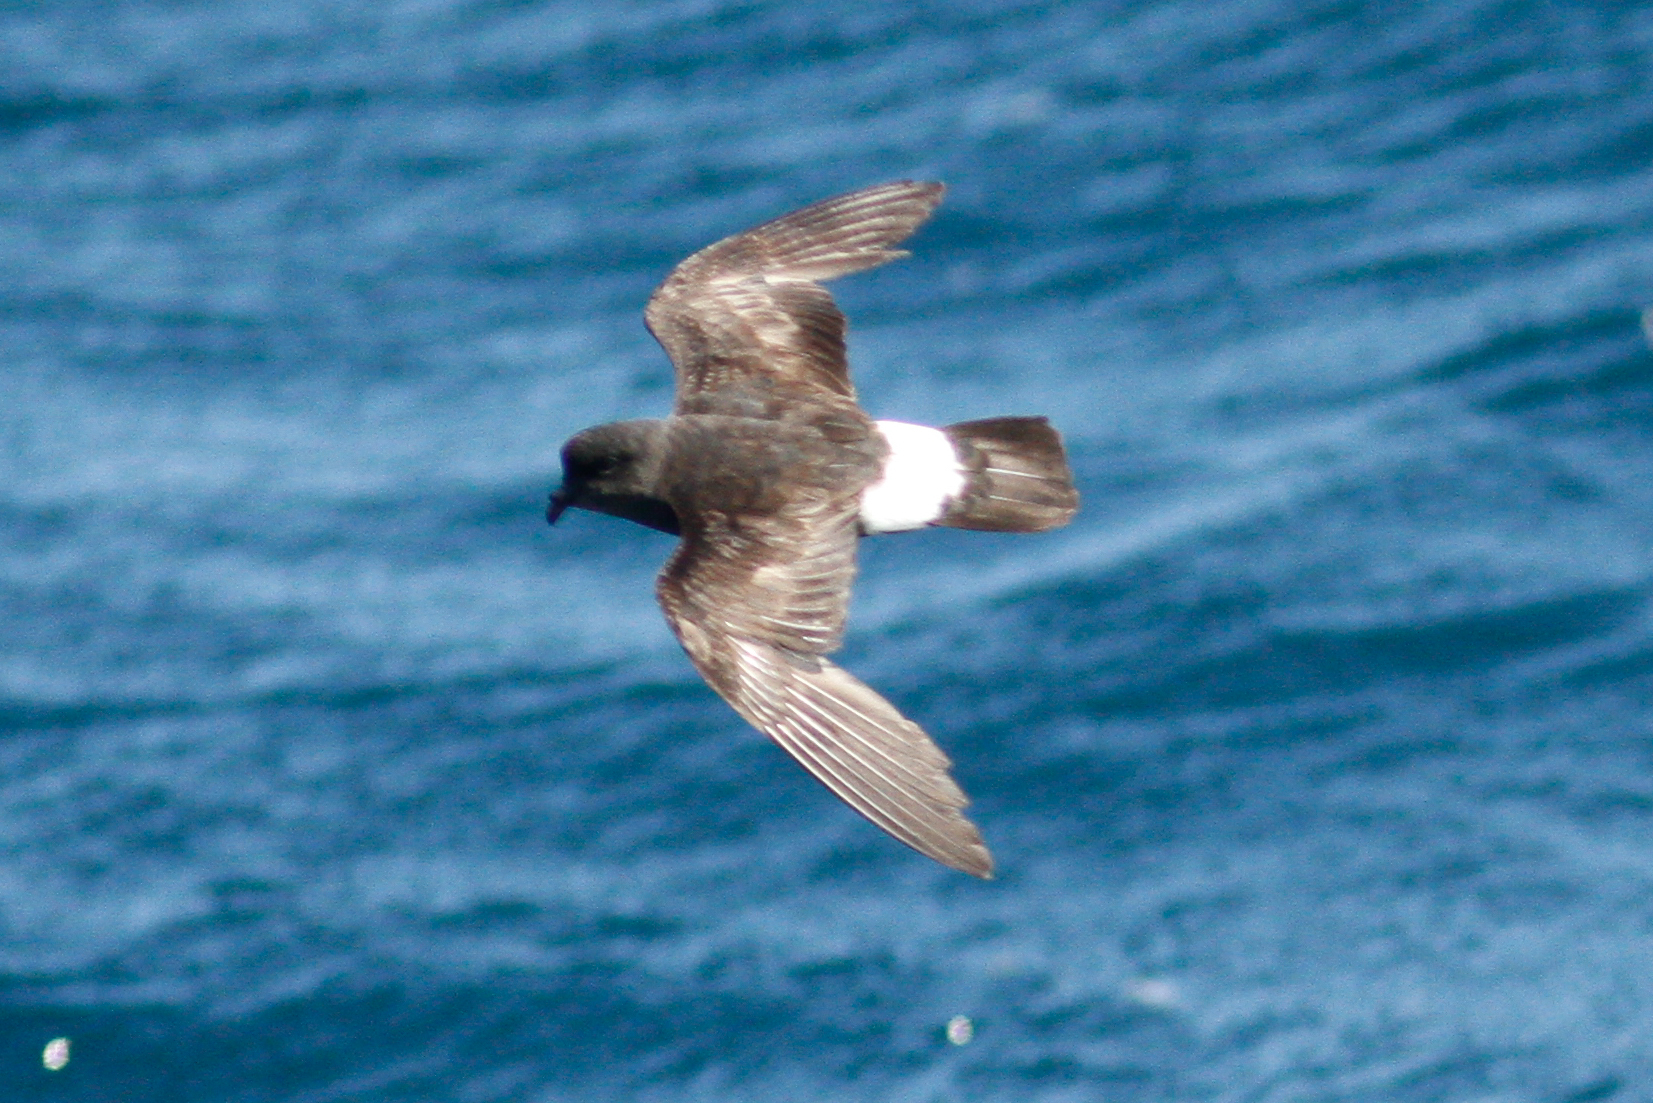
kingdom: Animalia
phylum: Chordata
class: Aves
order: Procellariiformes
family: Hydrobatidae
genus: Hydrobates
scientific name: Hydrobates pelagicus
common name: European storm-petrel
